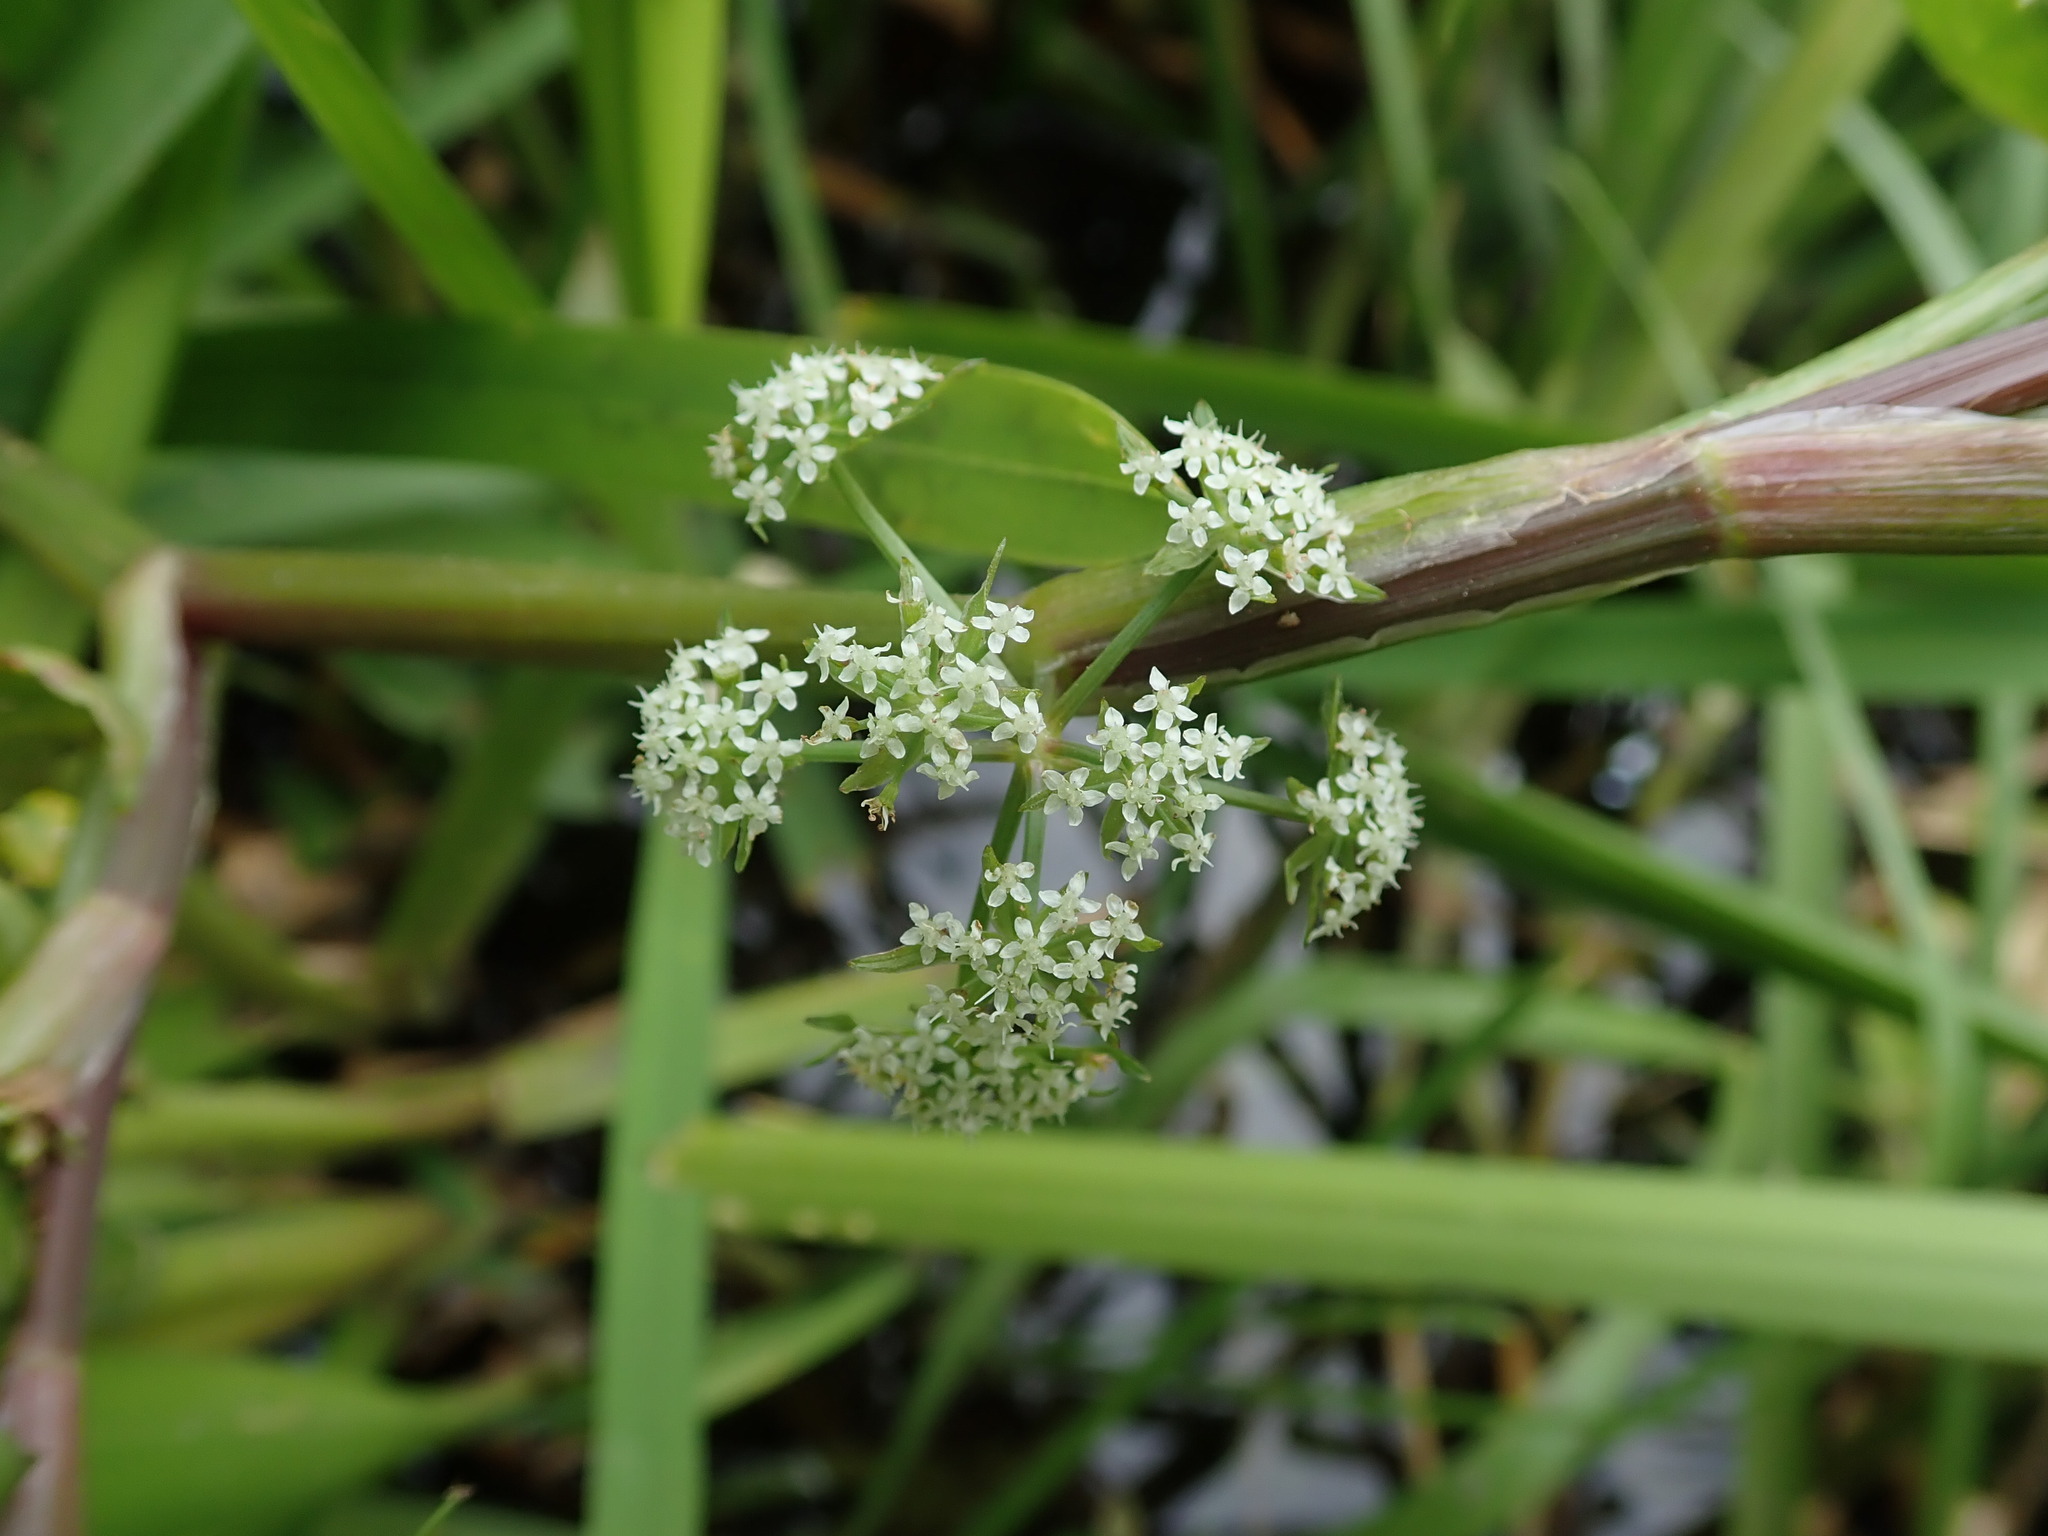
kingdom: Plantae
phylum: Tracheophyta
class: Magnoliopsida
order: Apiales
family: Apiaceae
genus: Helosciadium
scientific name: Helosciadium nodiflorum
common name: Fool's-watercress
